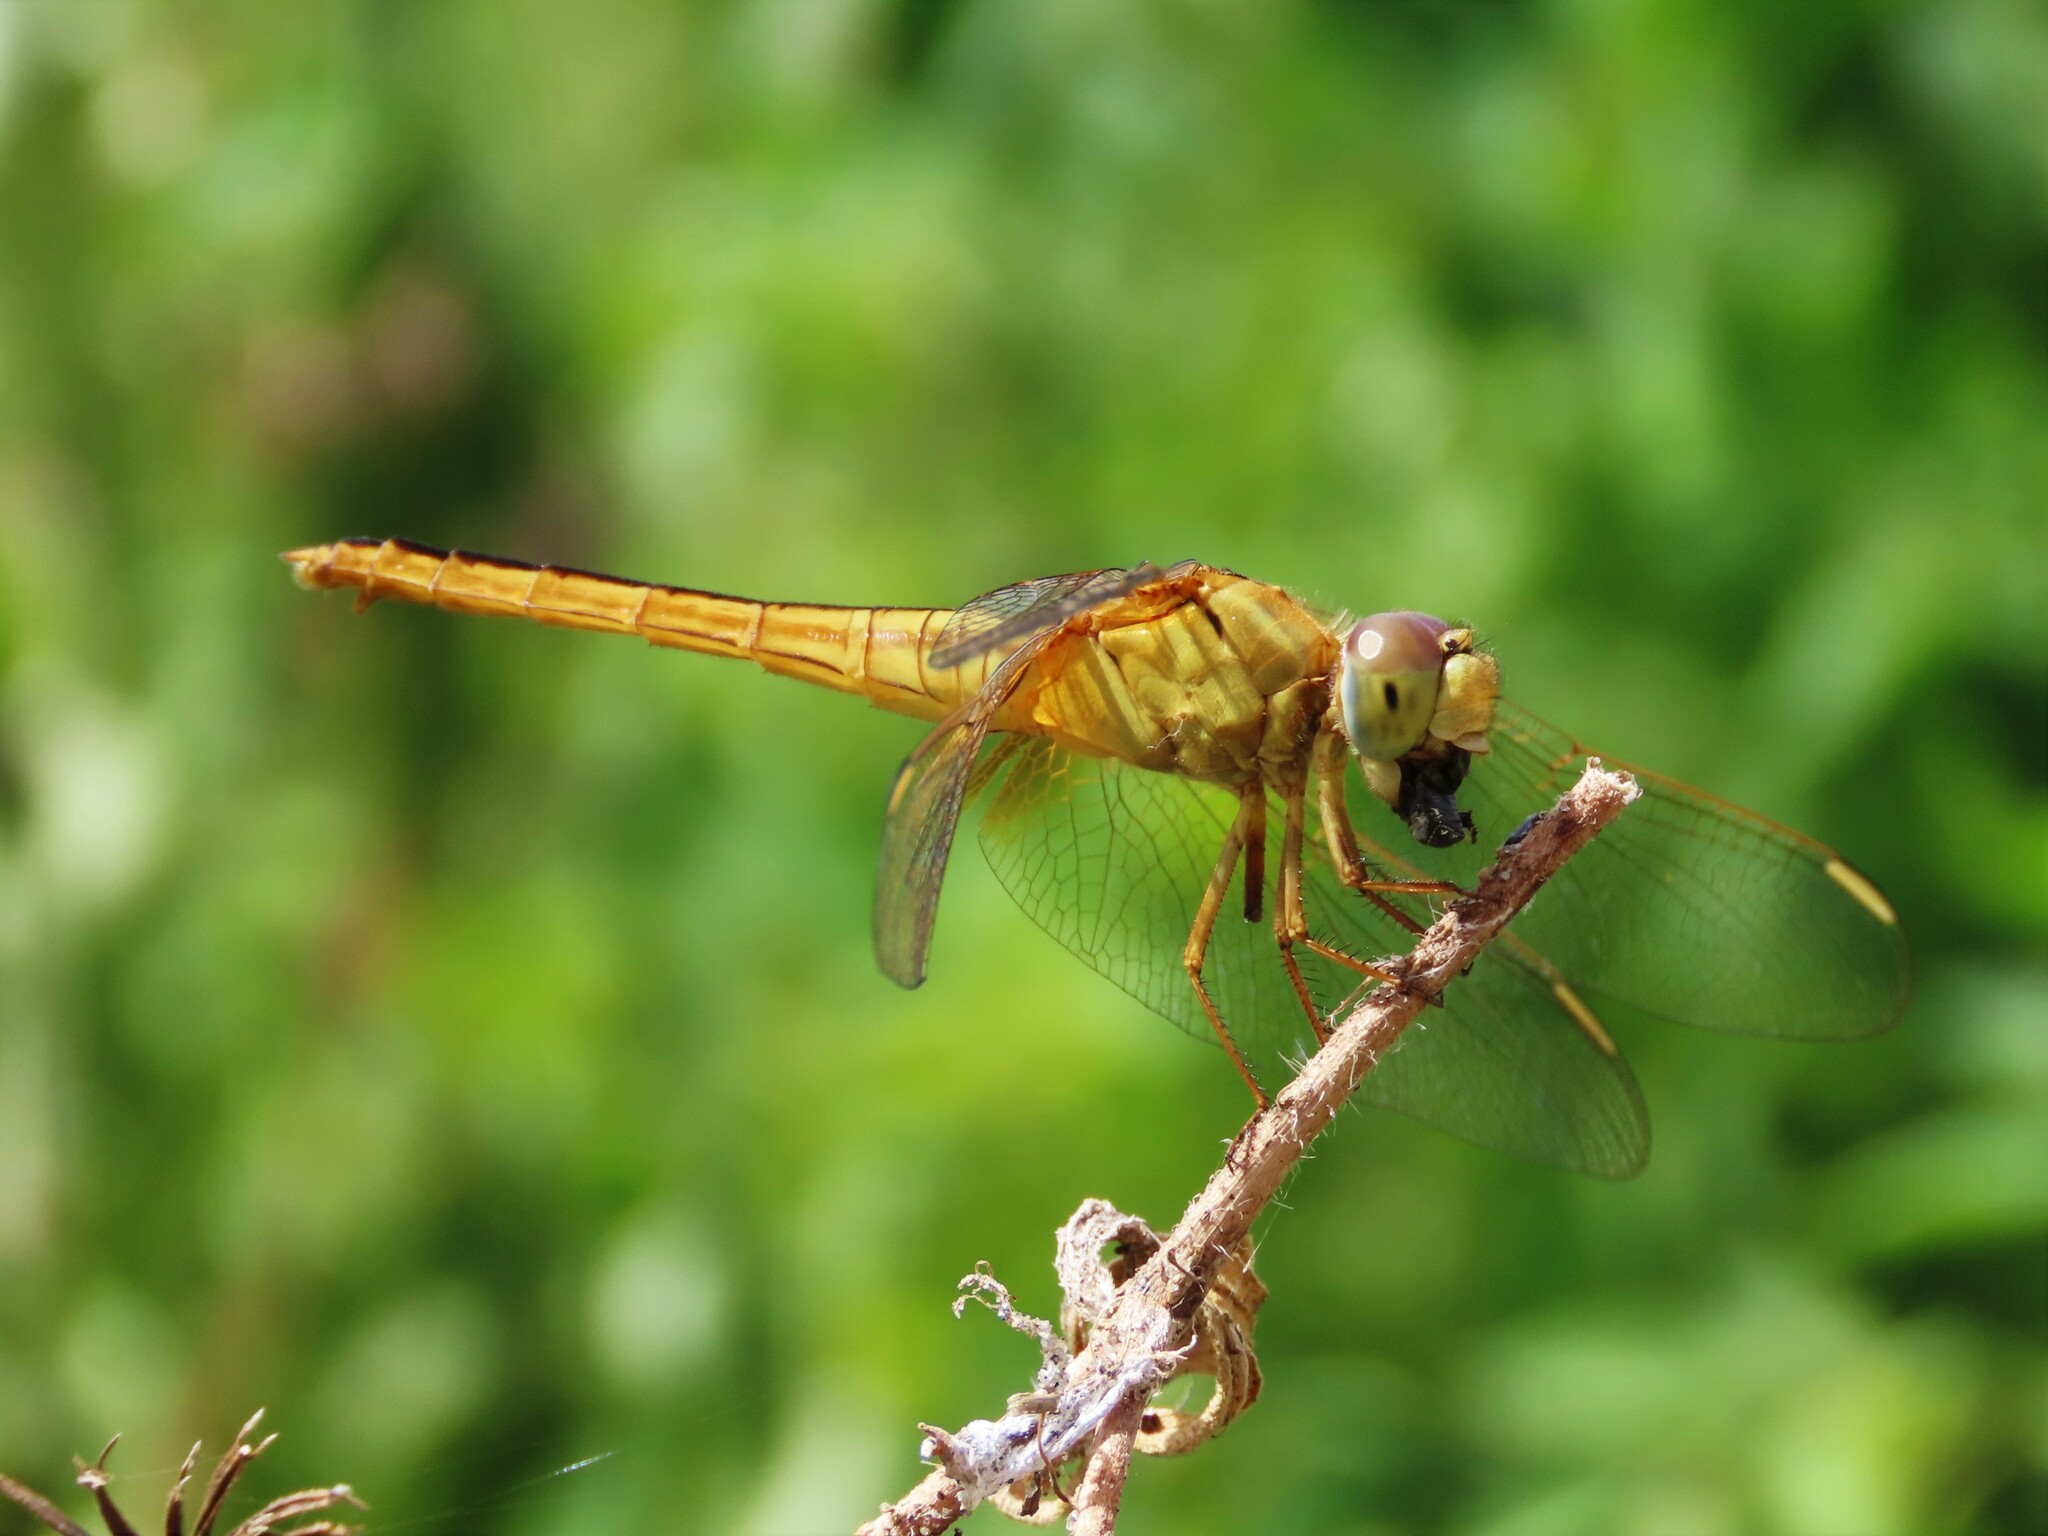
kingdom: Animalia
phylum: Arthropoda
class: Insecta
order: Odonata
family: Libellulidae
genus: Crocothemis
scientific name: Crocothemis servilia
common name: Scarlet skimmer
